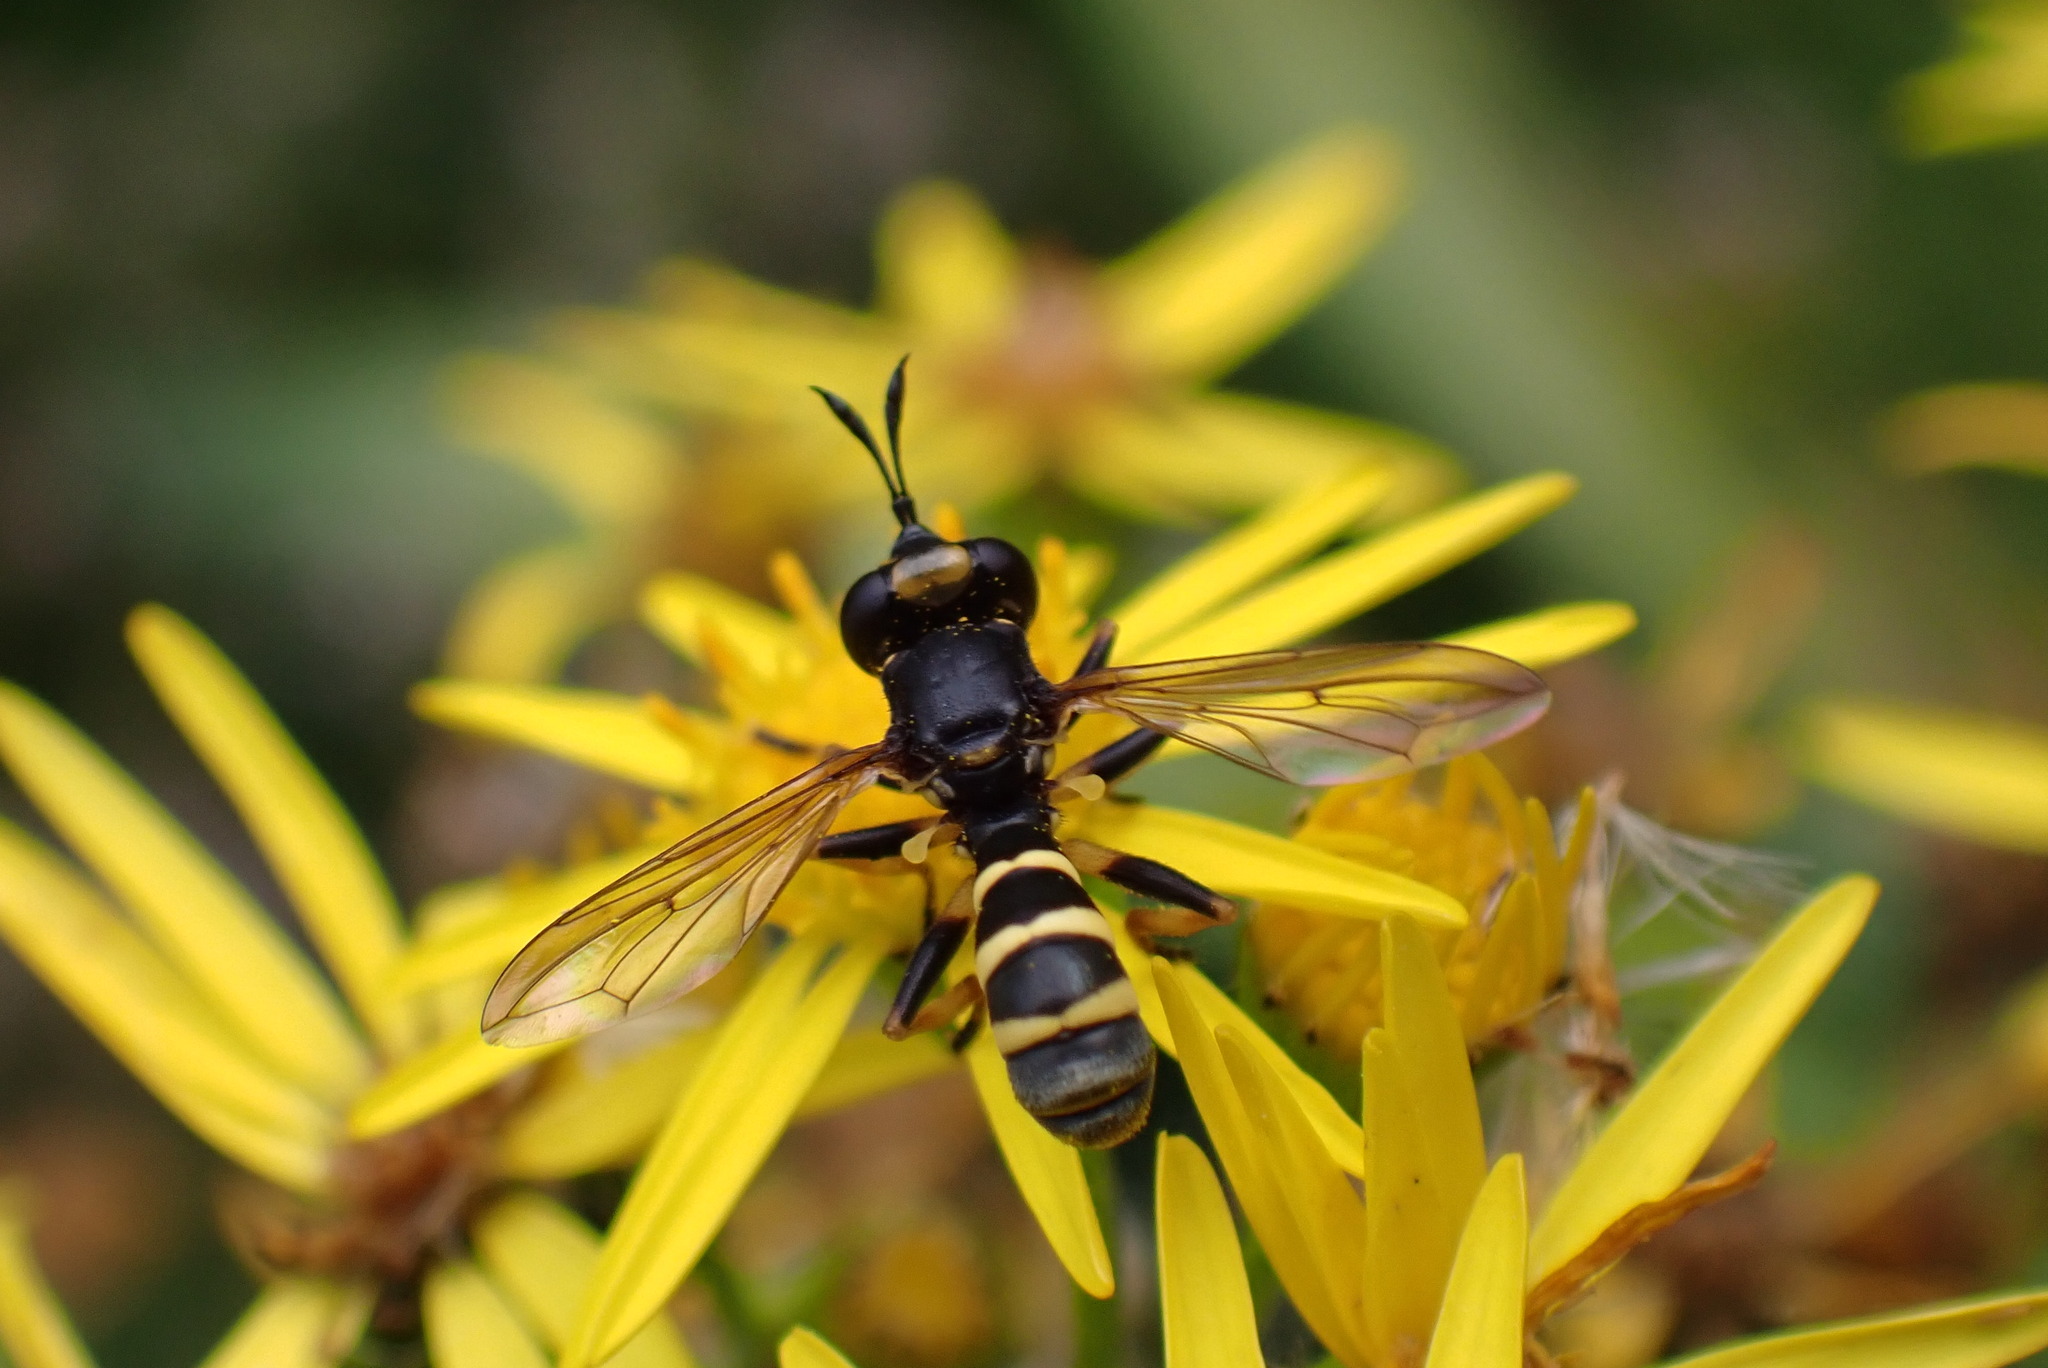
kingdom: Animalia
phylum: Arthropoda
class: Insecta
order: Diptera
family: Conopidae
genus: Conops
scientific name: Conops flavipes
